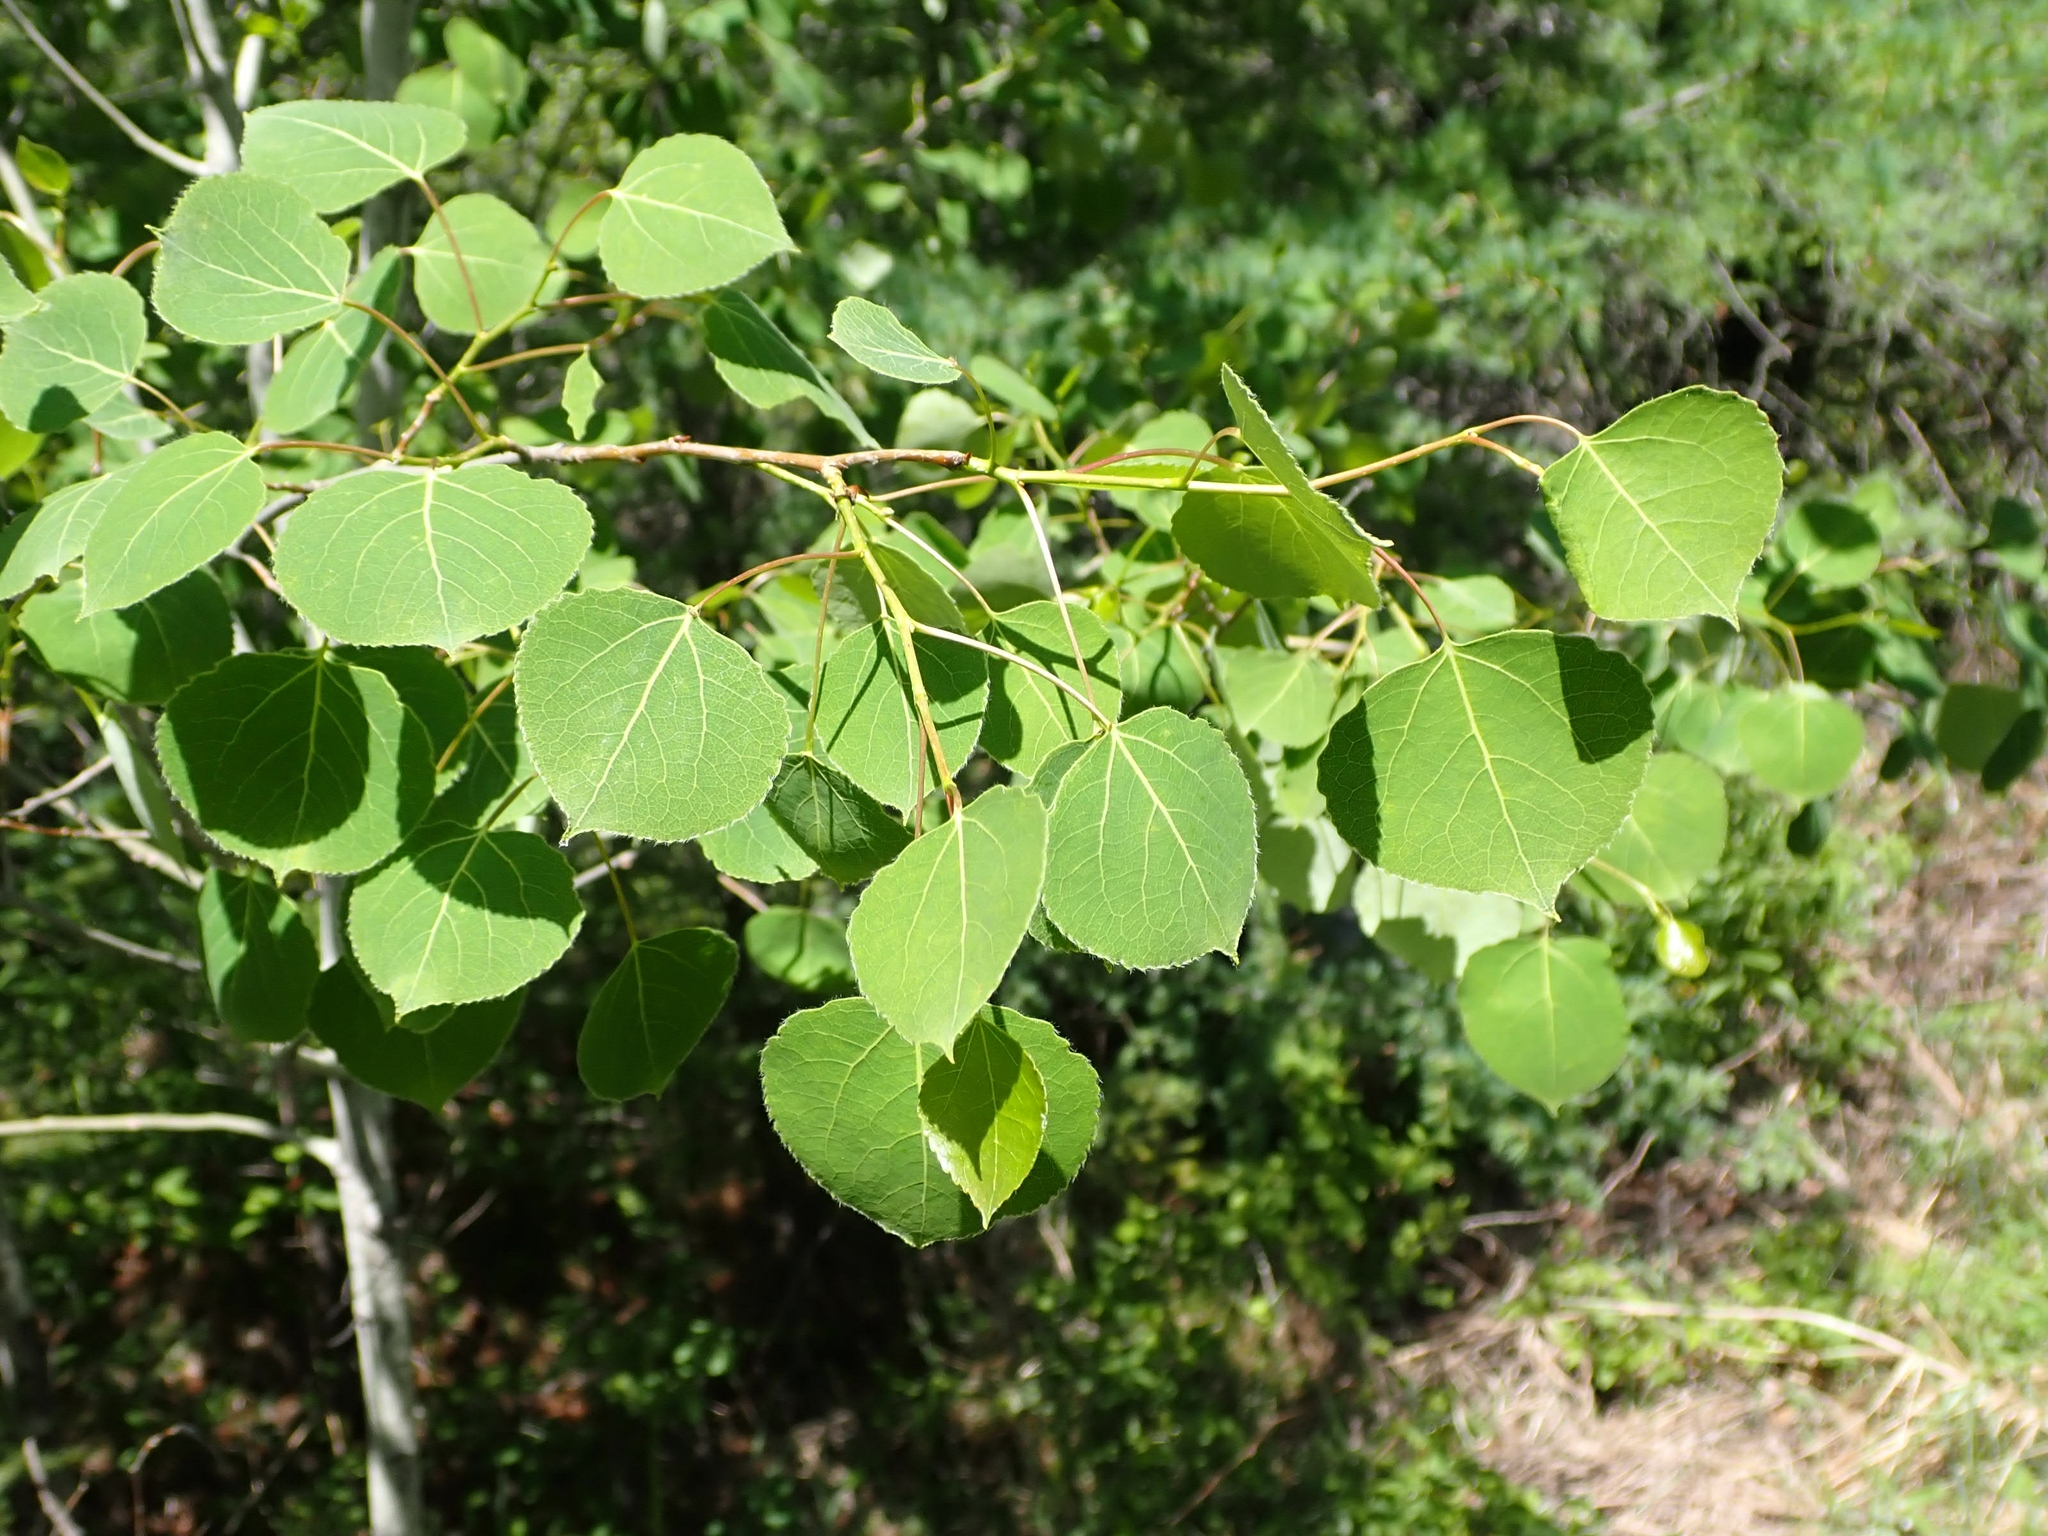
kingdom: Plantae
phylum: Tracheophyta
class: Magnoliopsida
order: Malpighiales
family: Salicaceae
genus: Populus
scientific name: Populus tremuloides
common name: Quaking aspen
